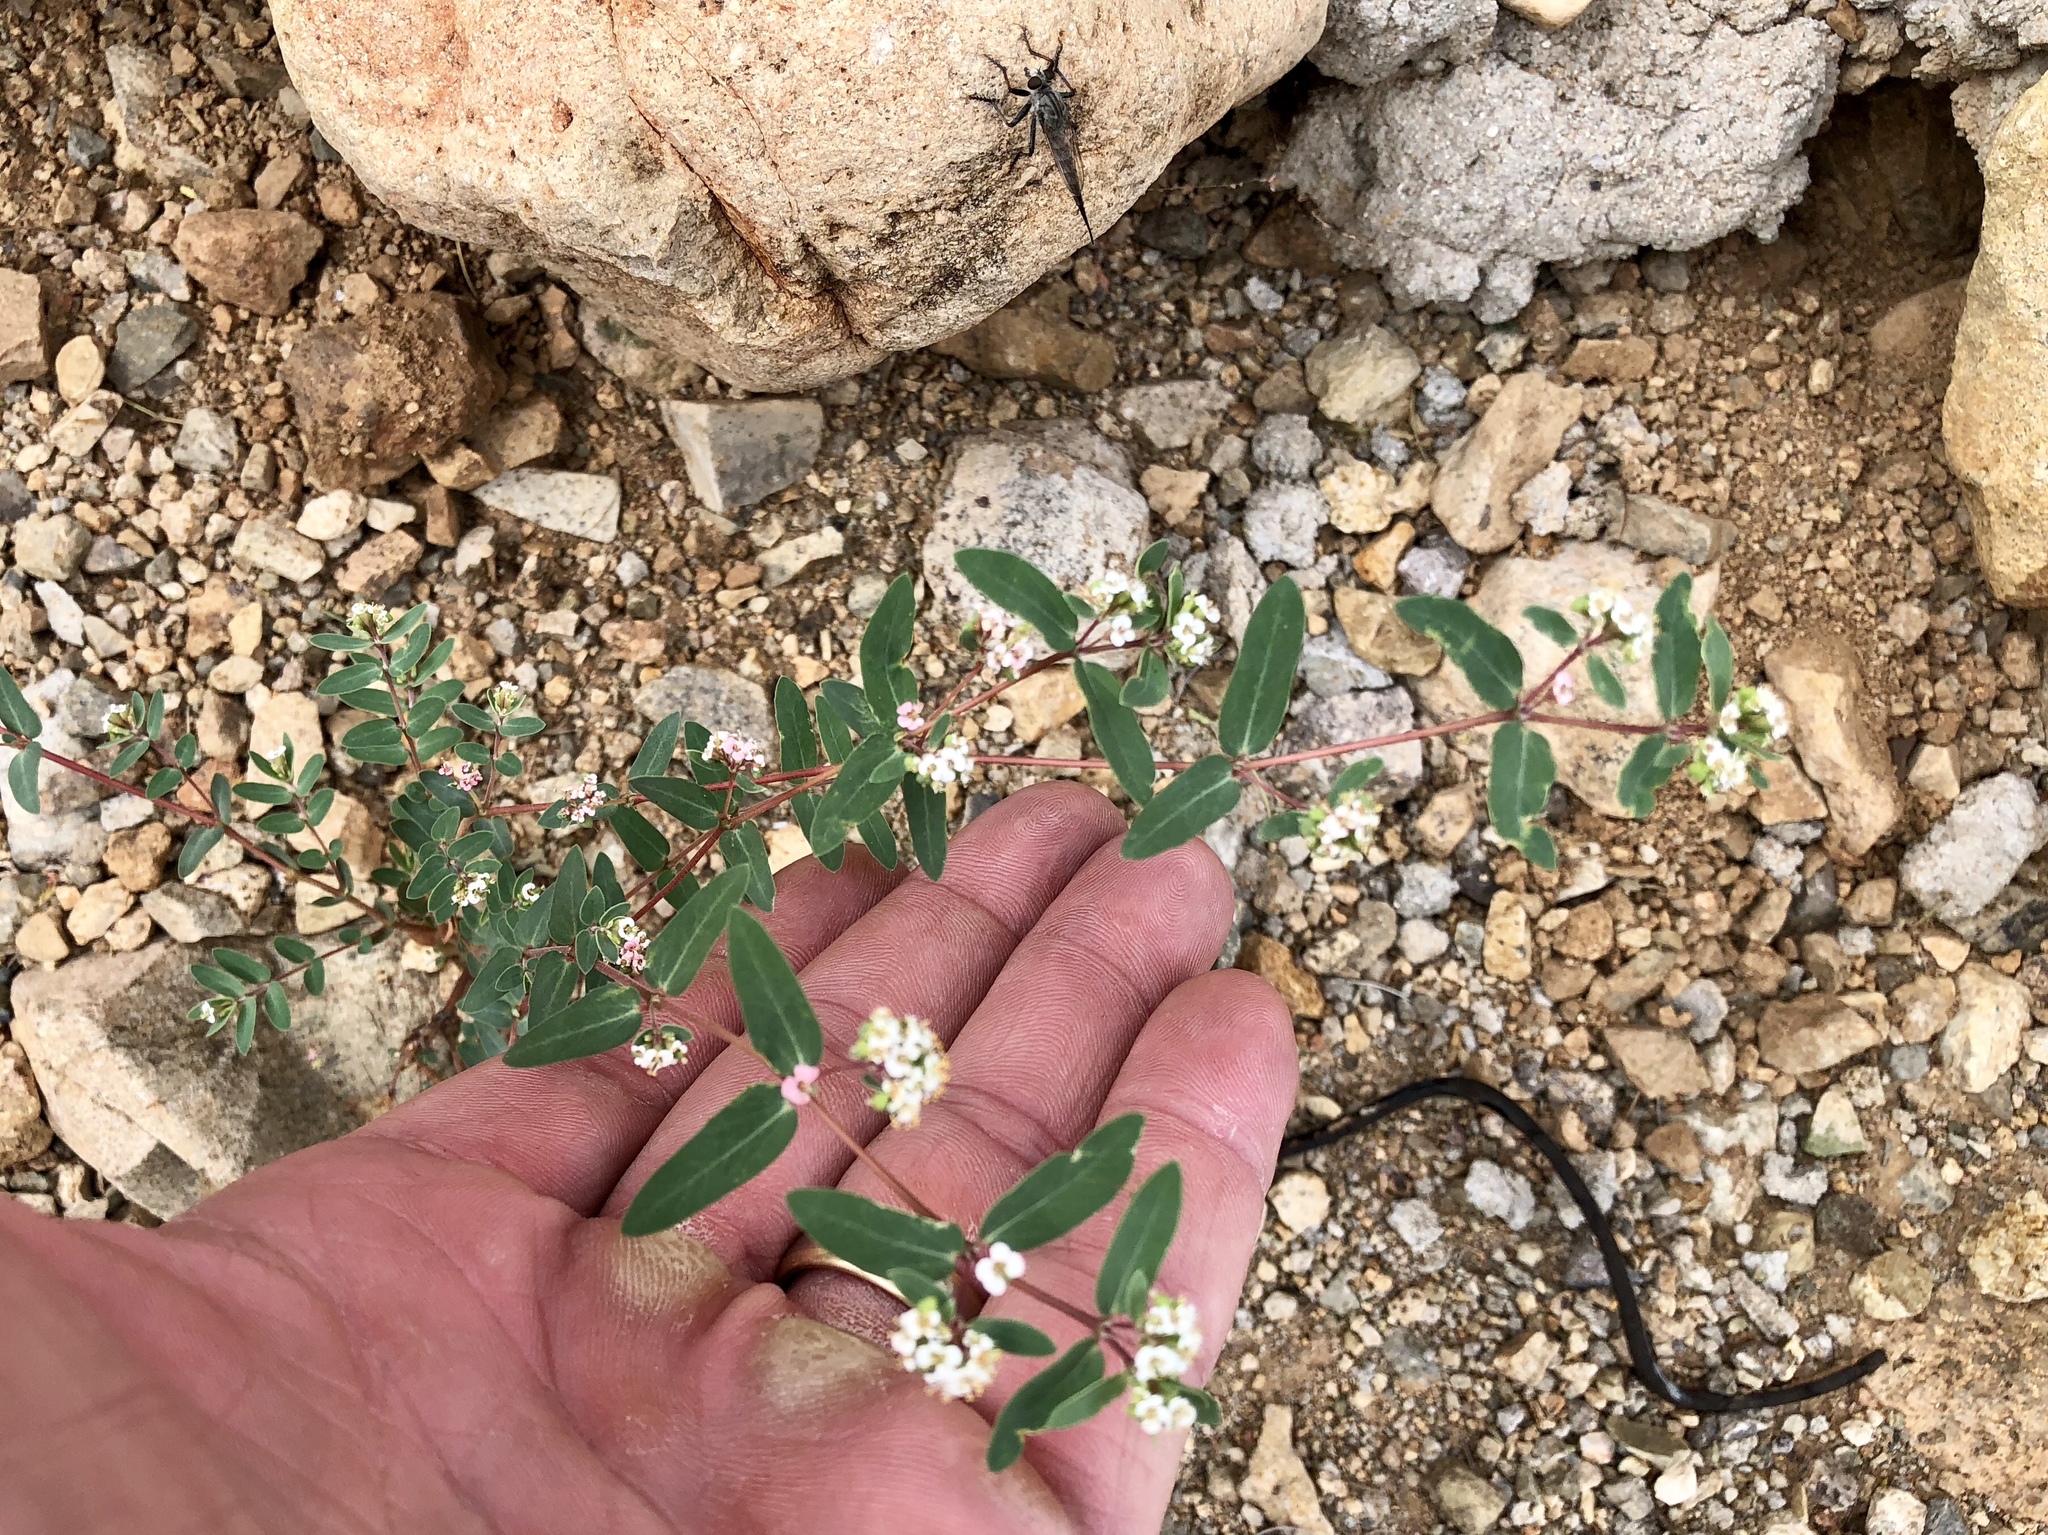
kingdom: Plantae
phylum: Tracheophyta
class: Magnoliopsida
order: Malpighiales
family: Euphorbiaceae
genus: Euphorbia
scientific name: Euphorbia capitellata
